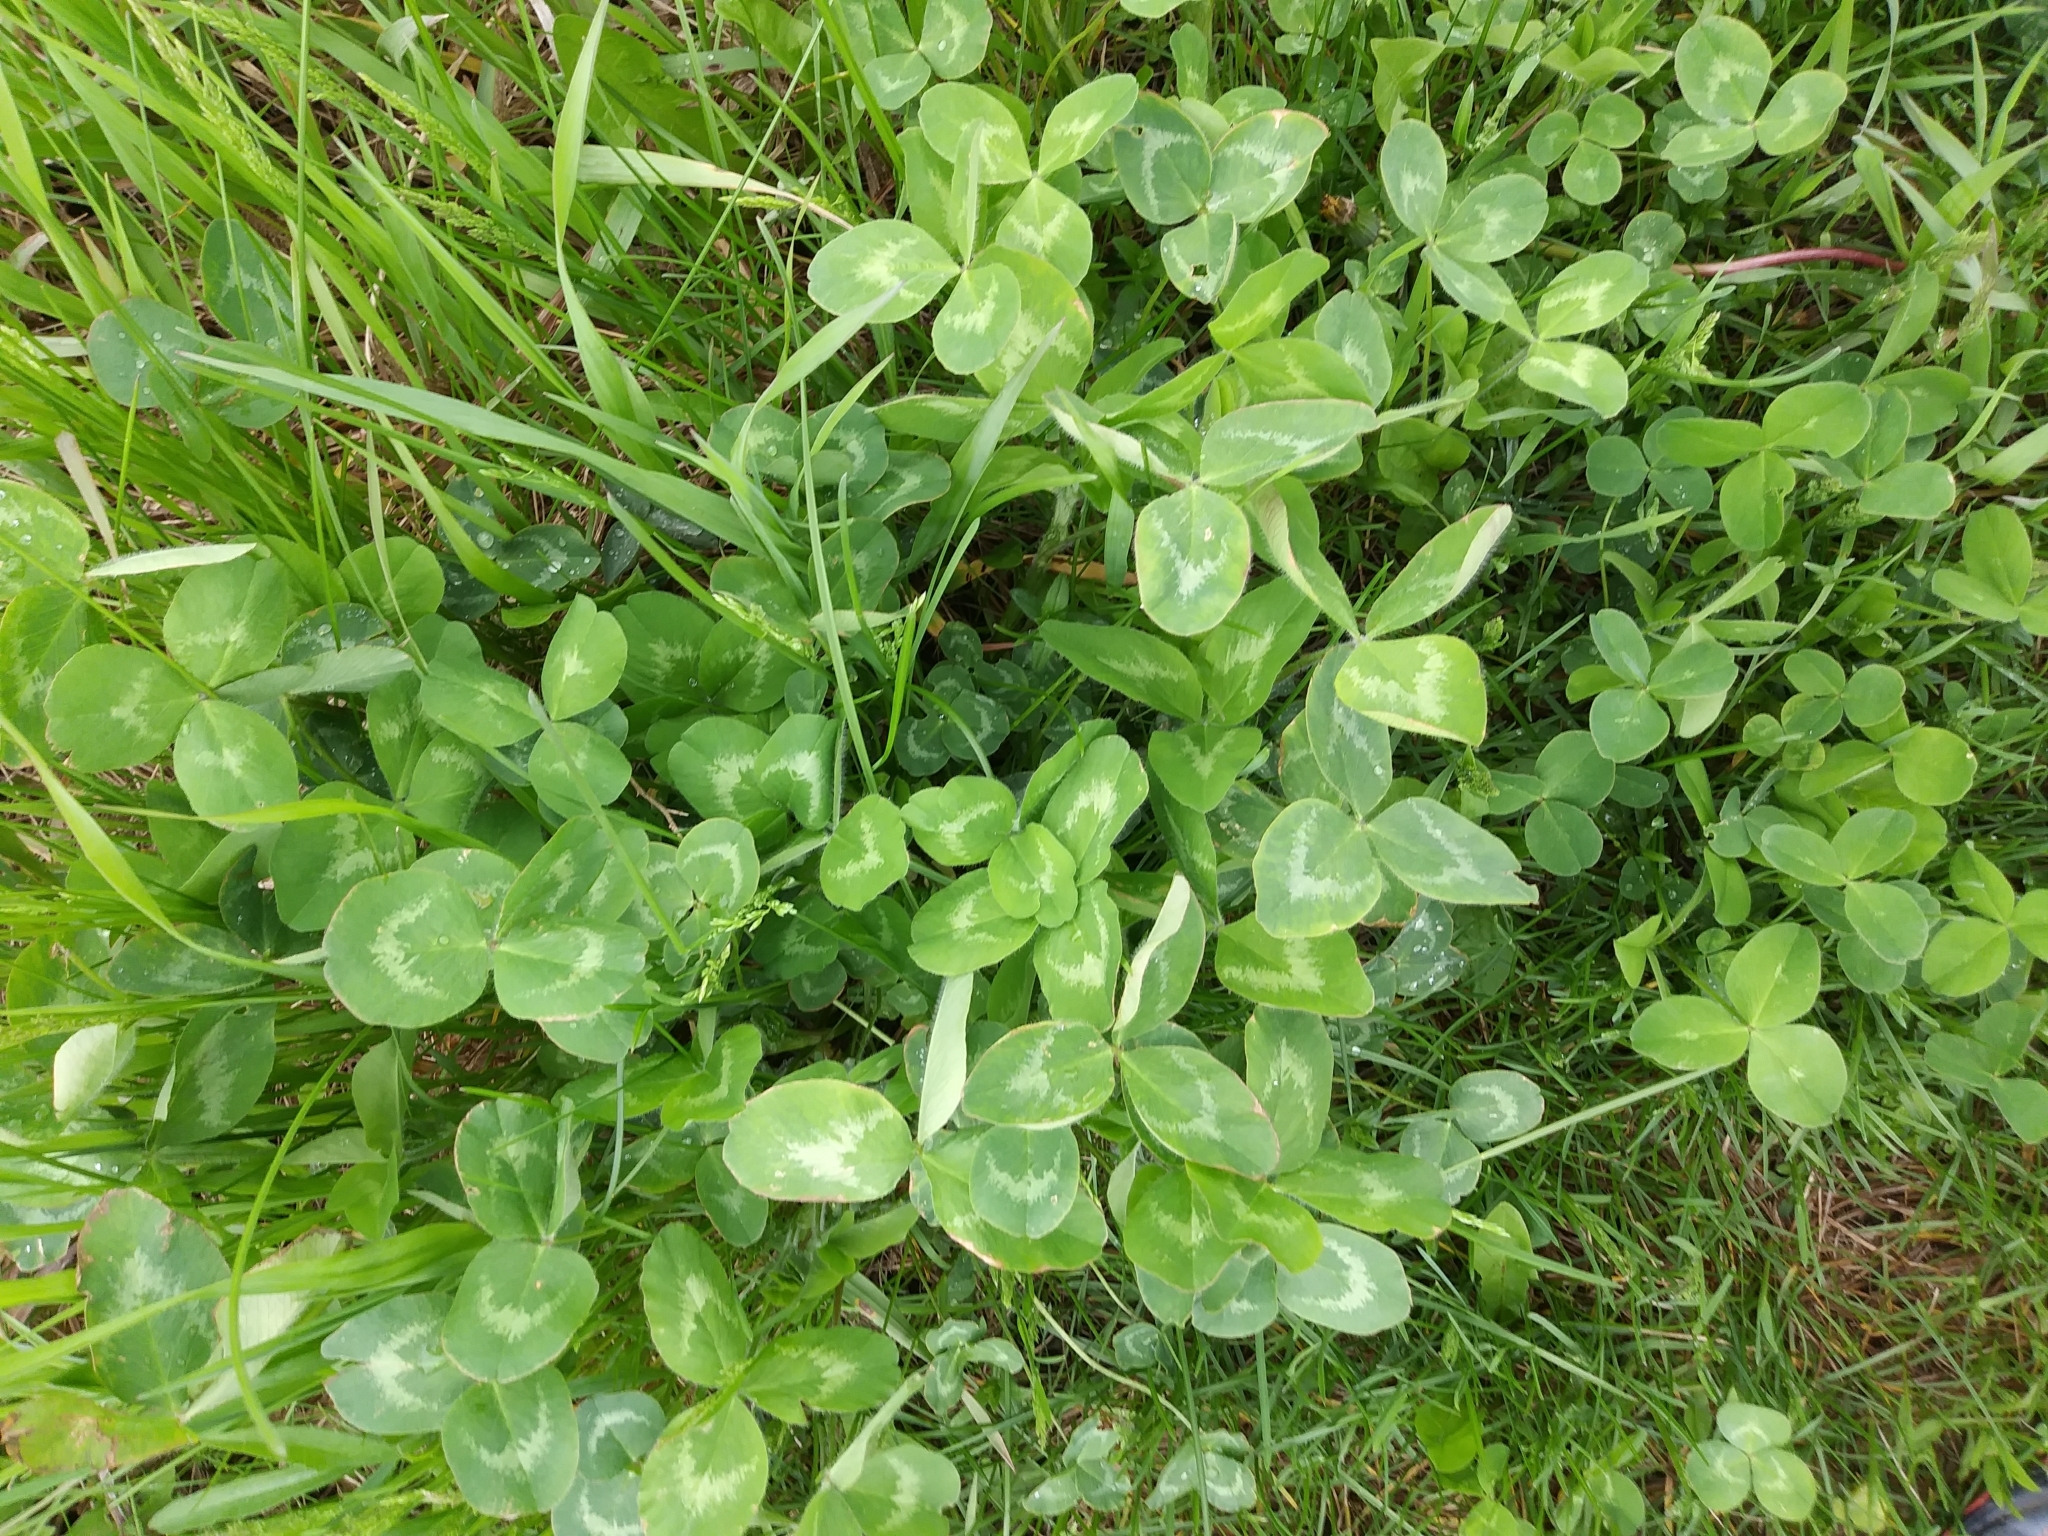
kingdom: Plantae
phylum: Tracheophyta
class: Magnoliopsida
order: Fabales
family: Fabaceae
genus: Trifolium
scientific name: Trifolium pratense
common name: Red clover
